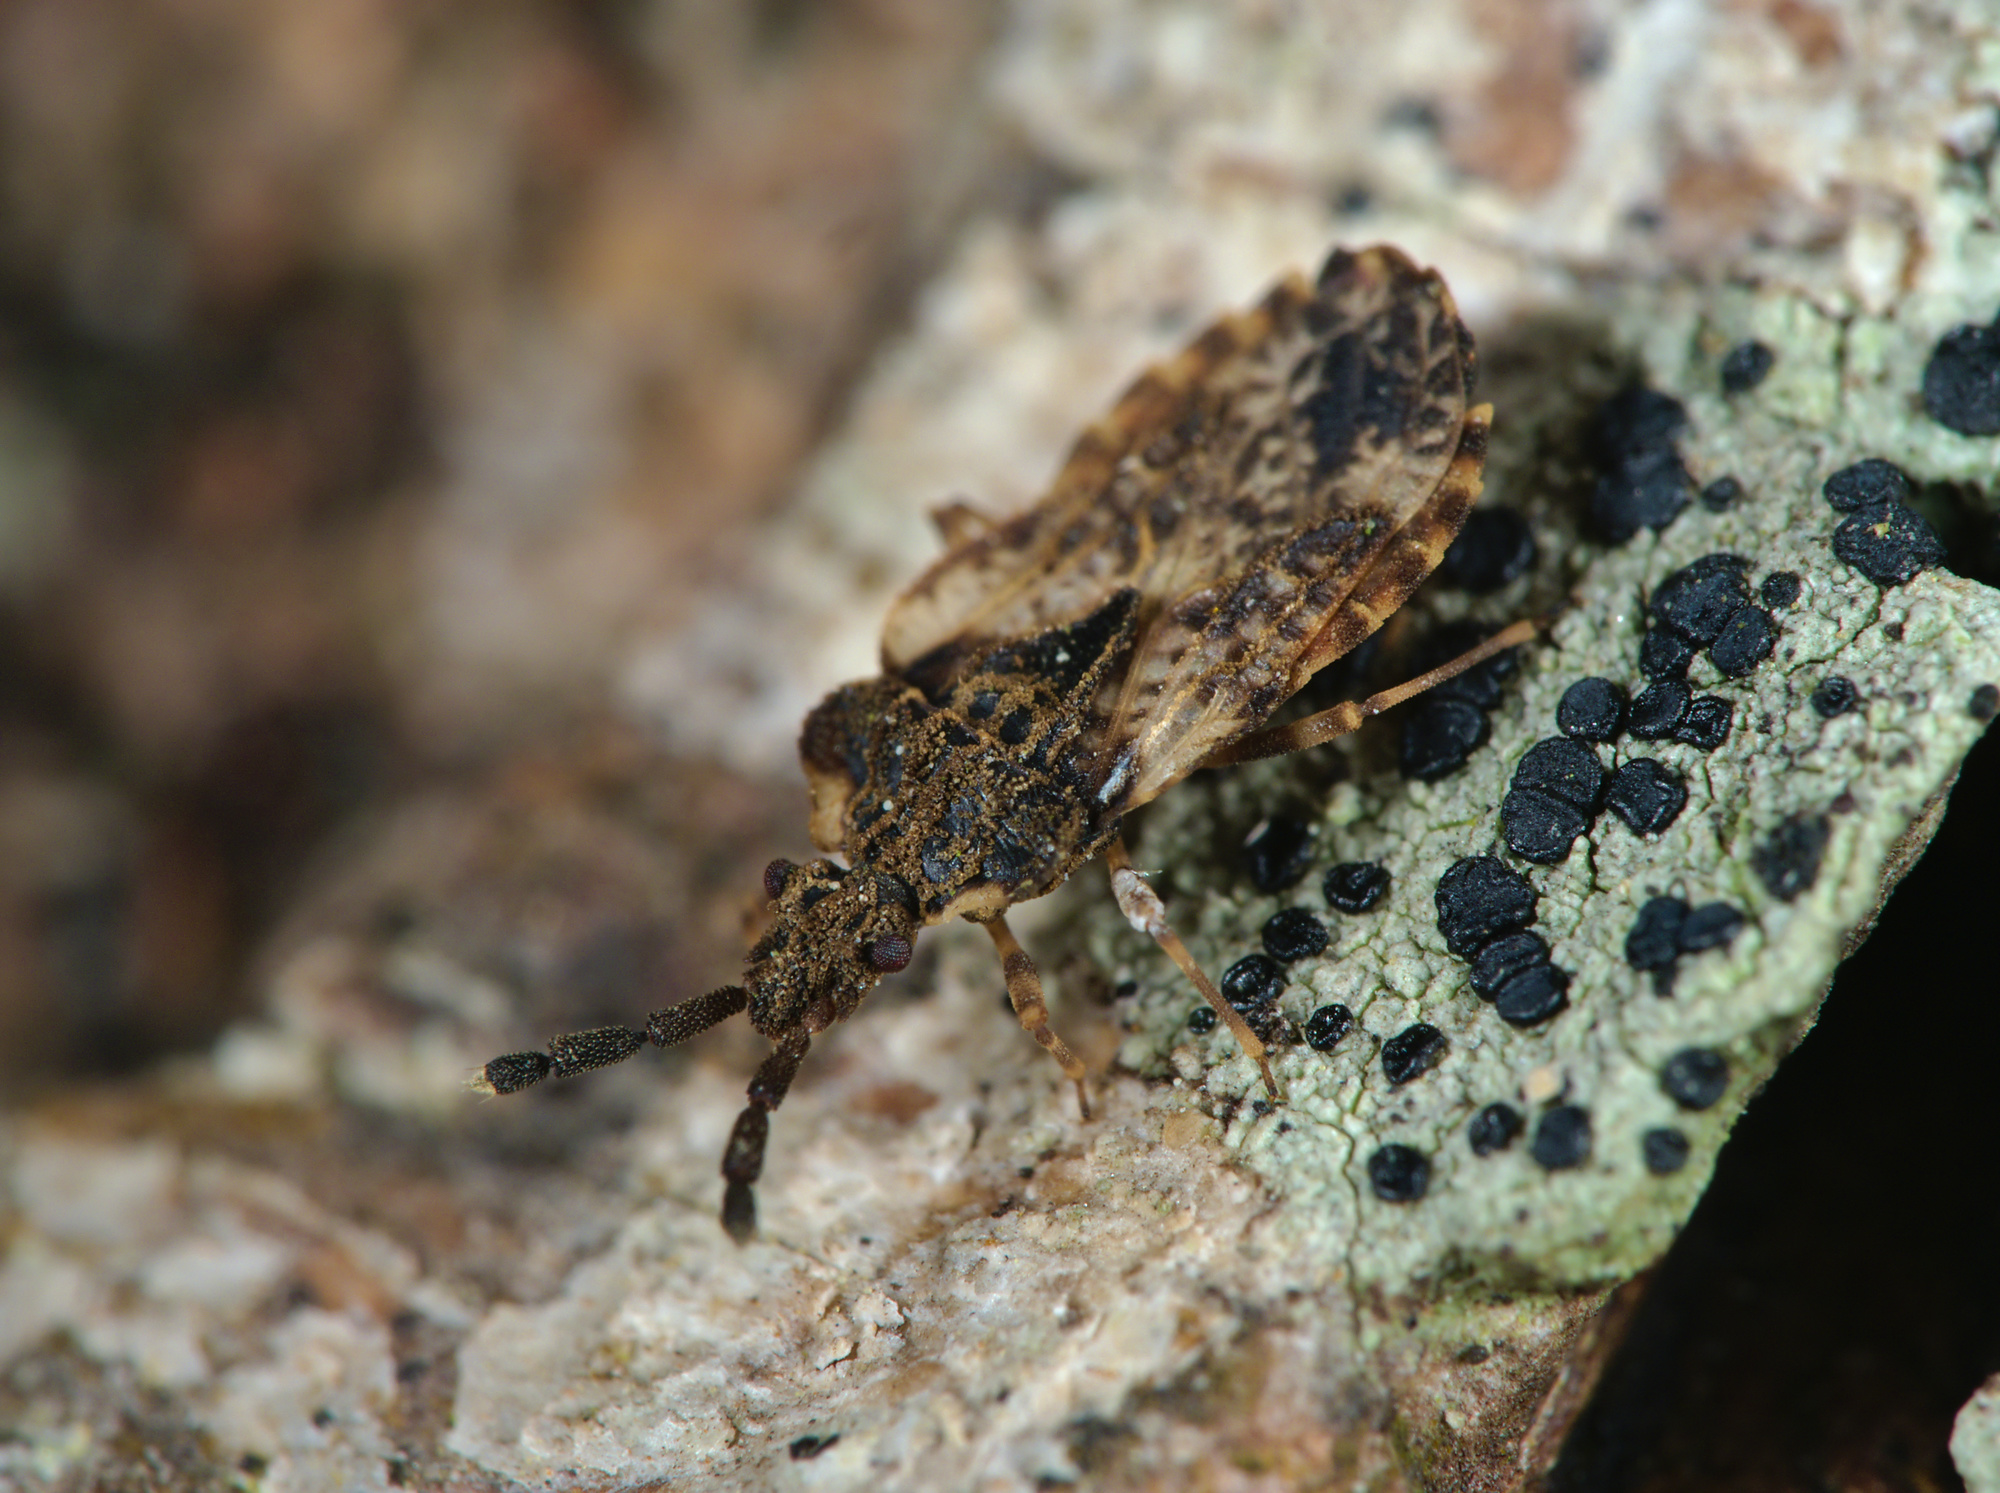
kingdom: Animalia
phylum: Arthropoda
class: Insecta
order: Hemiptera
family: Aradidae
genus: Aradus
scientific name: Aradus depressus
